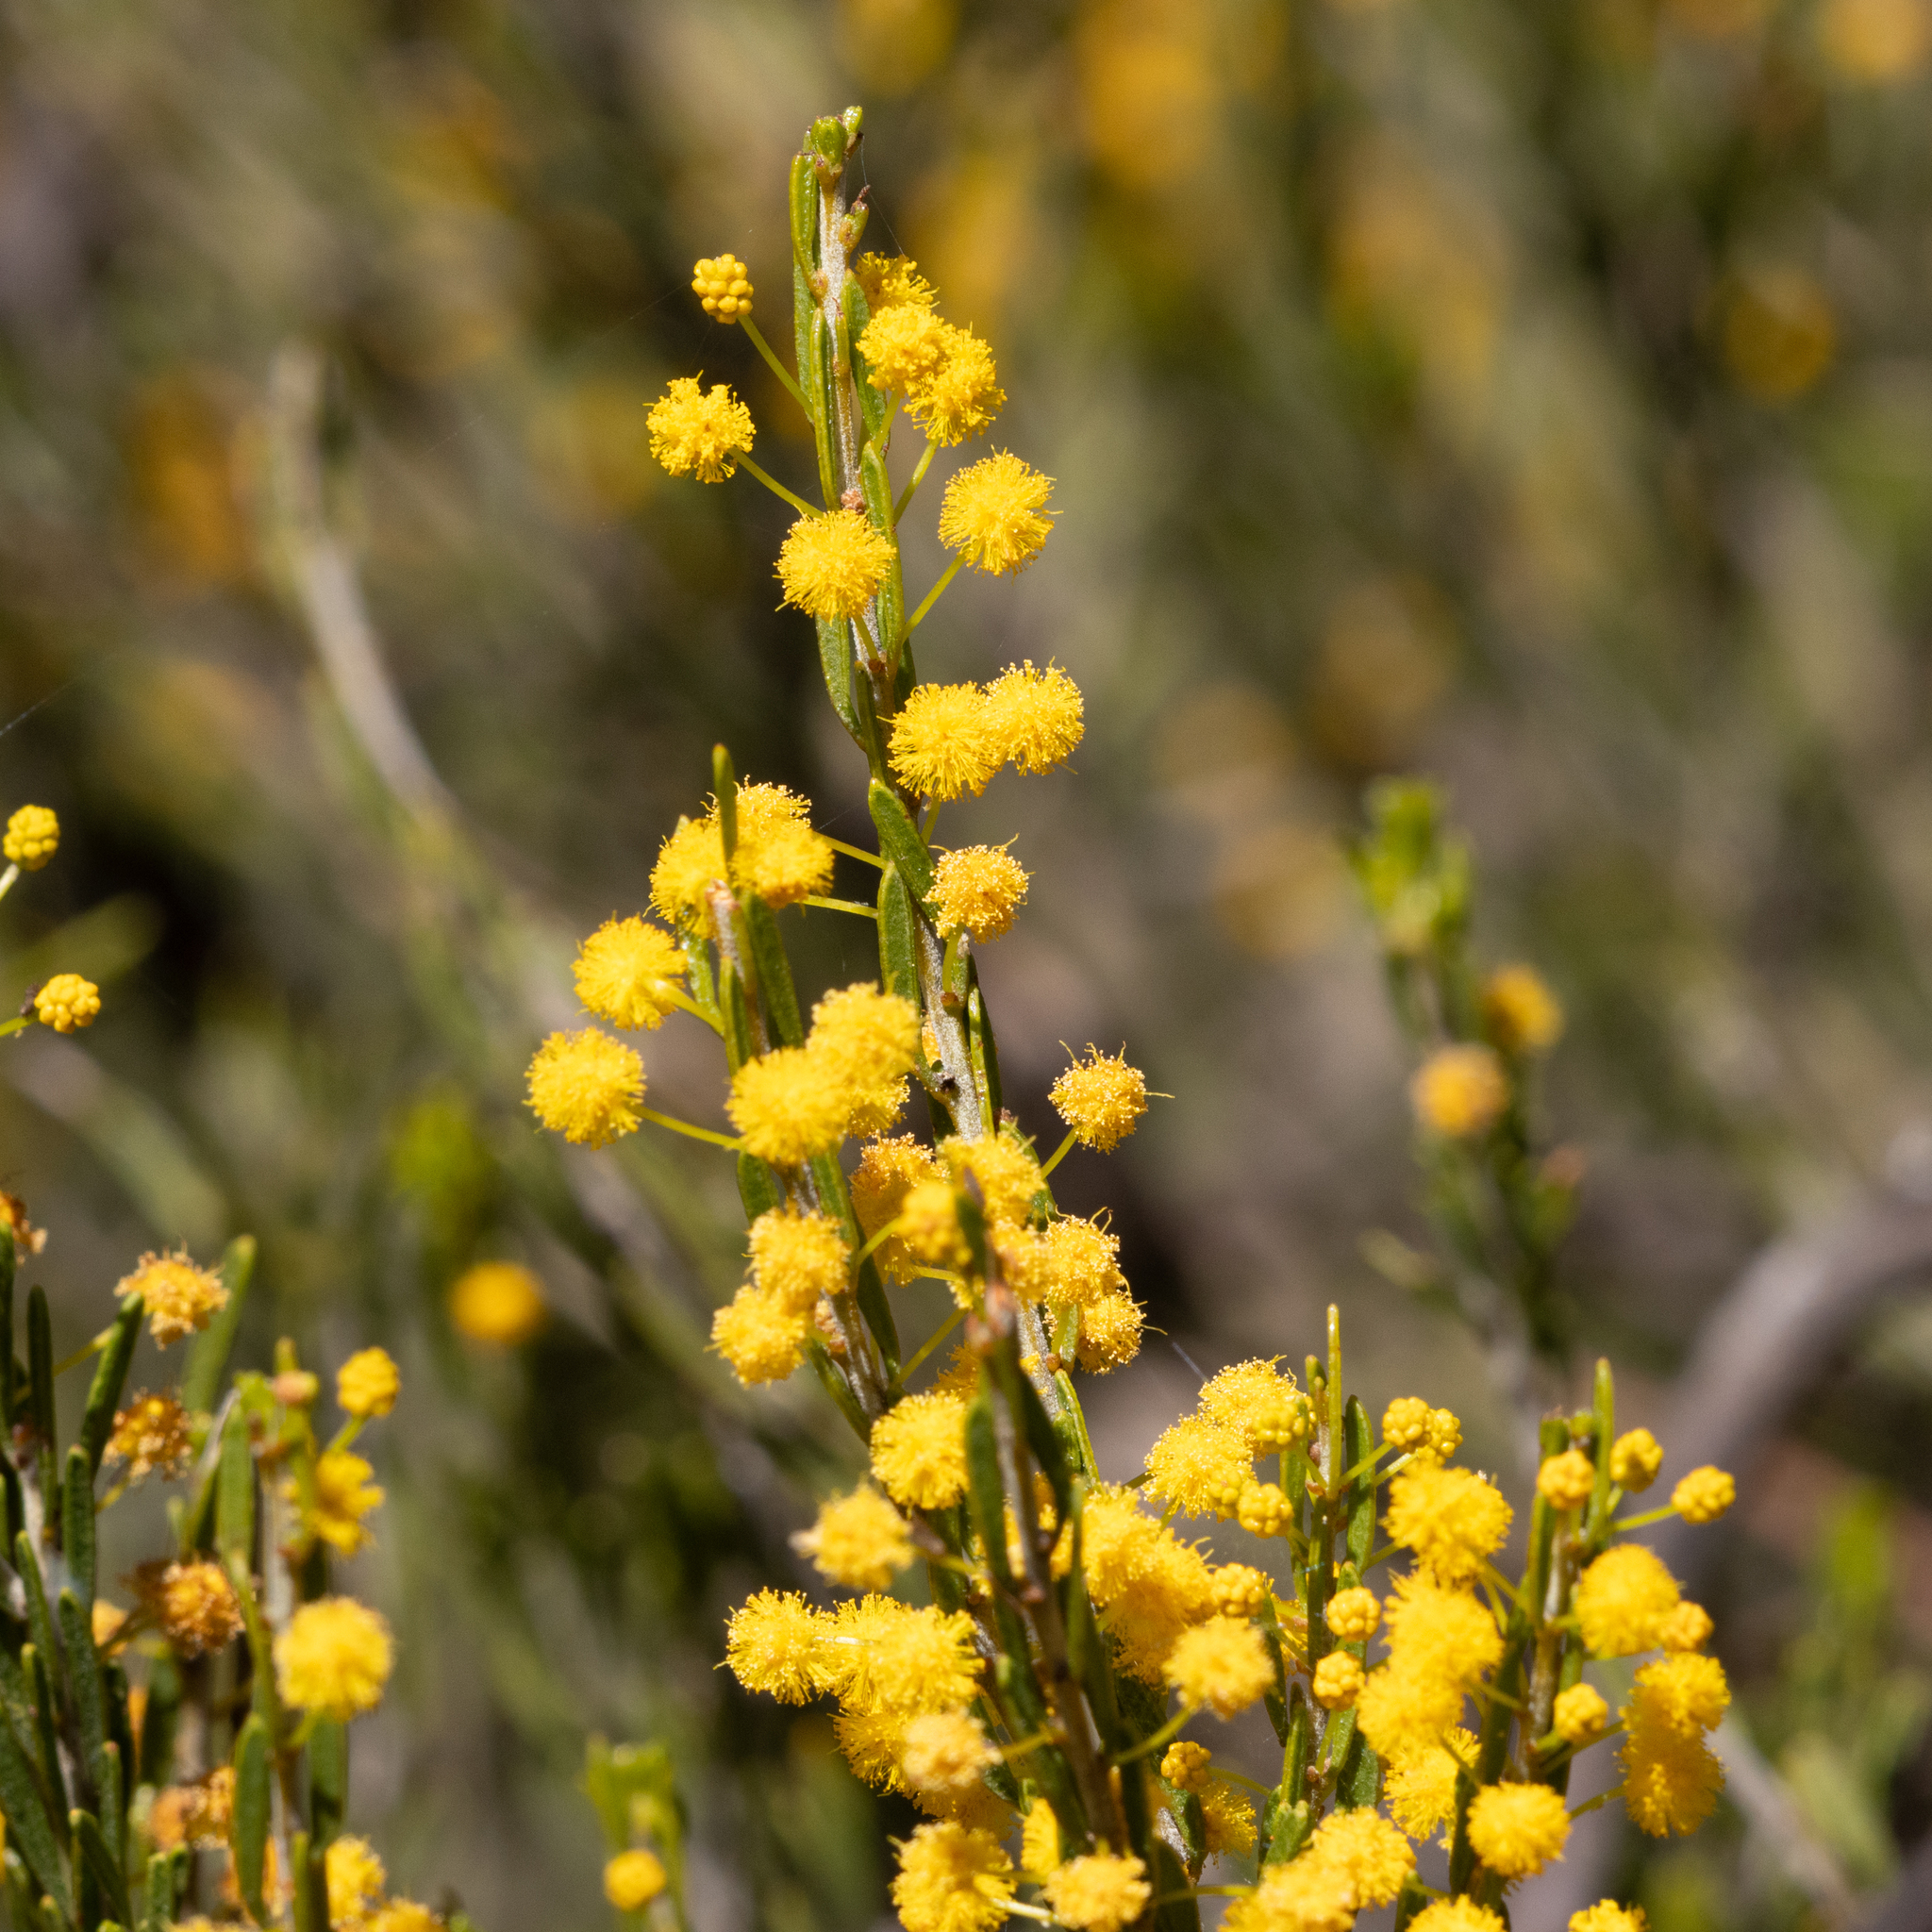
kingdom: Plantae
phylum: Tracheophyta
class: Magnoliopsida
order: Fabales
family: Fabaceae
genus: Acacia
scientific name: Acacia lineata
